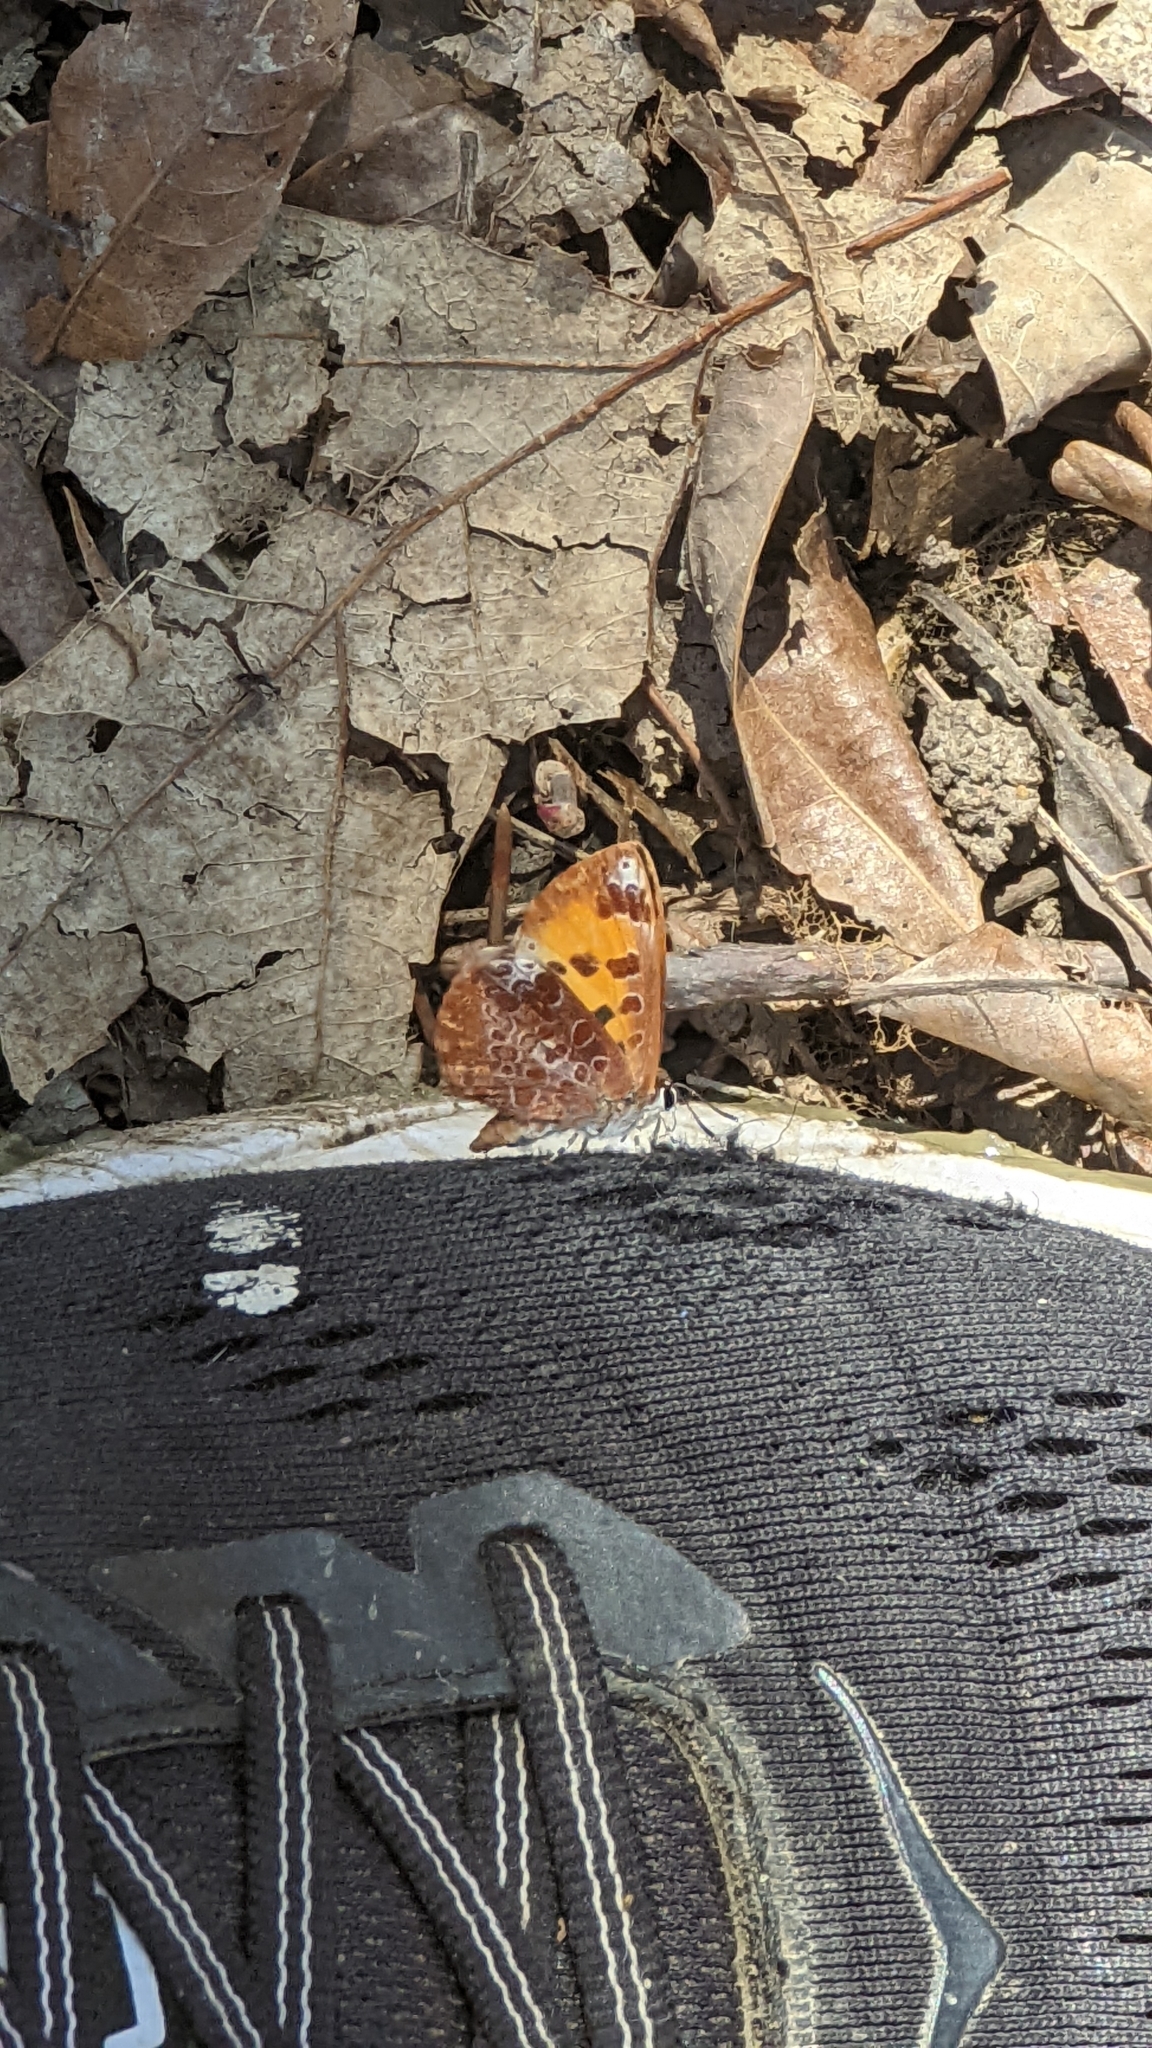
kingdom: Animalia
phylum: Arthropoda
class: Insecta
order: Lepidoptera
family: Lycaenidae
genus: Feniseca
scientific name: Feniseca tarquinius
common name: Harvester
